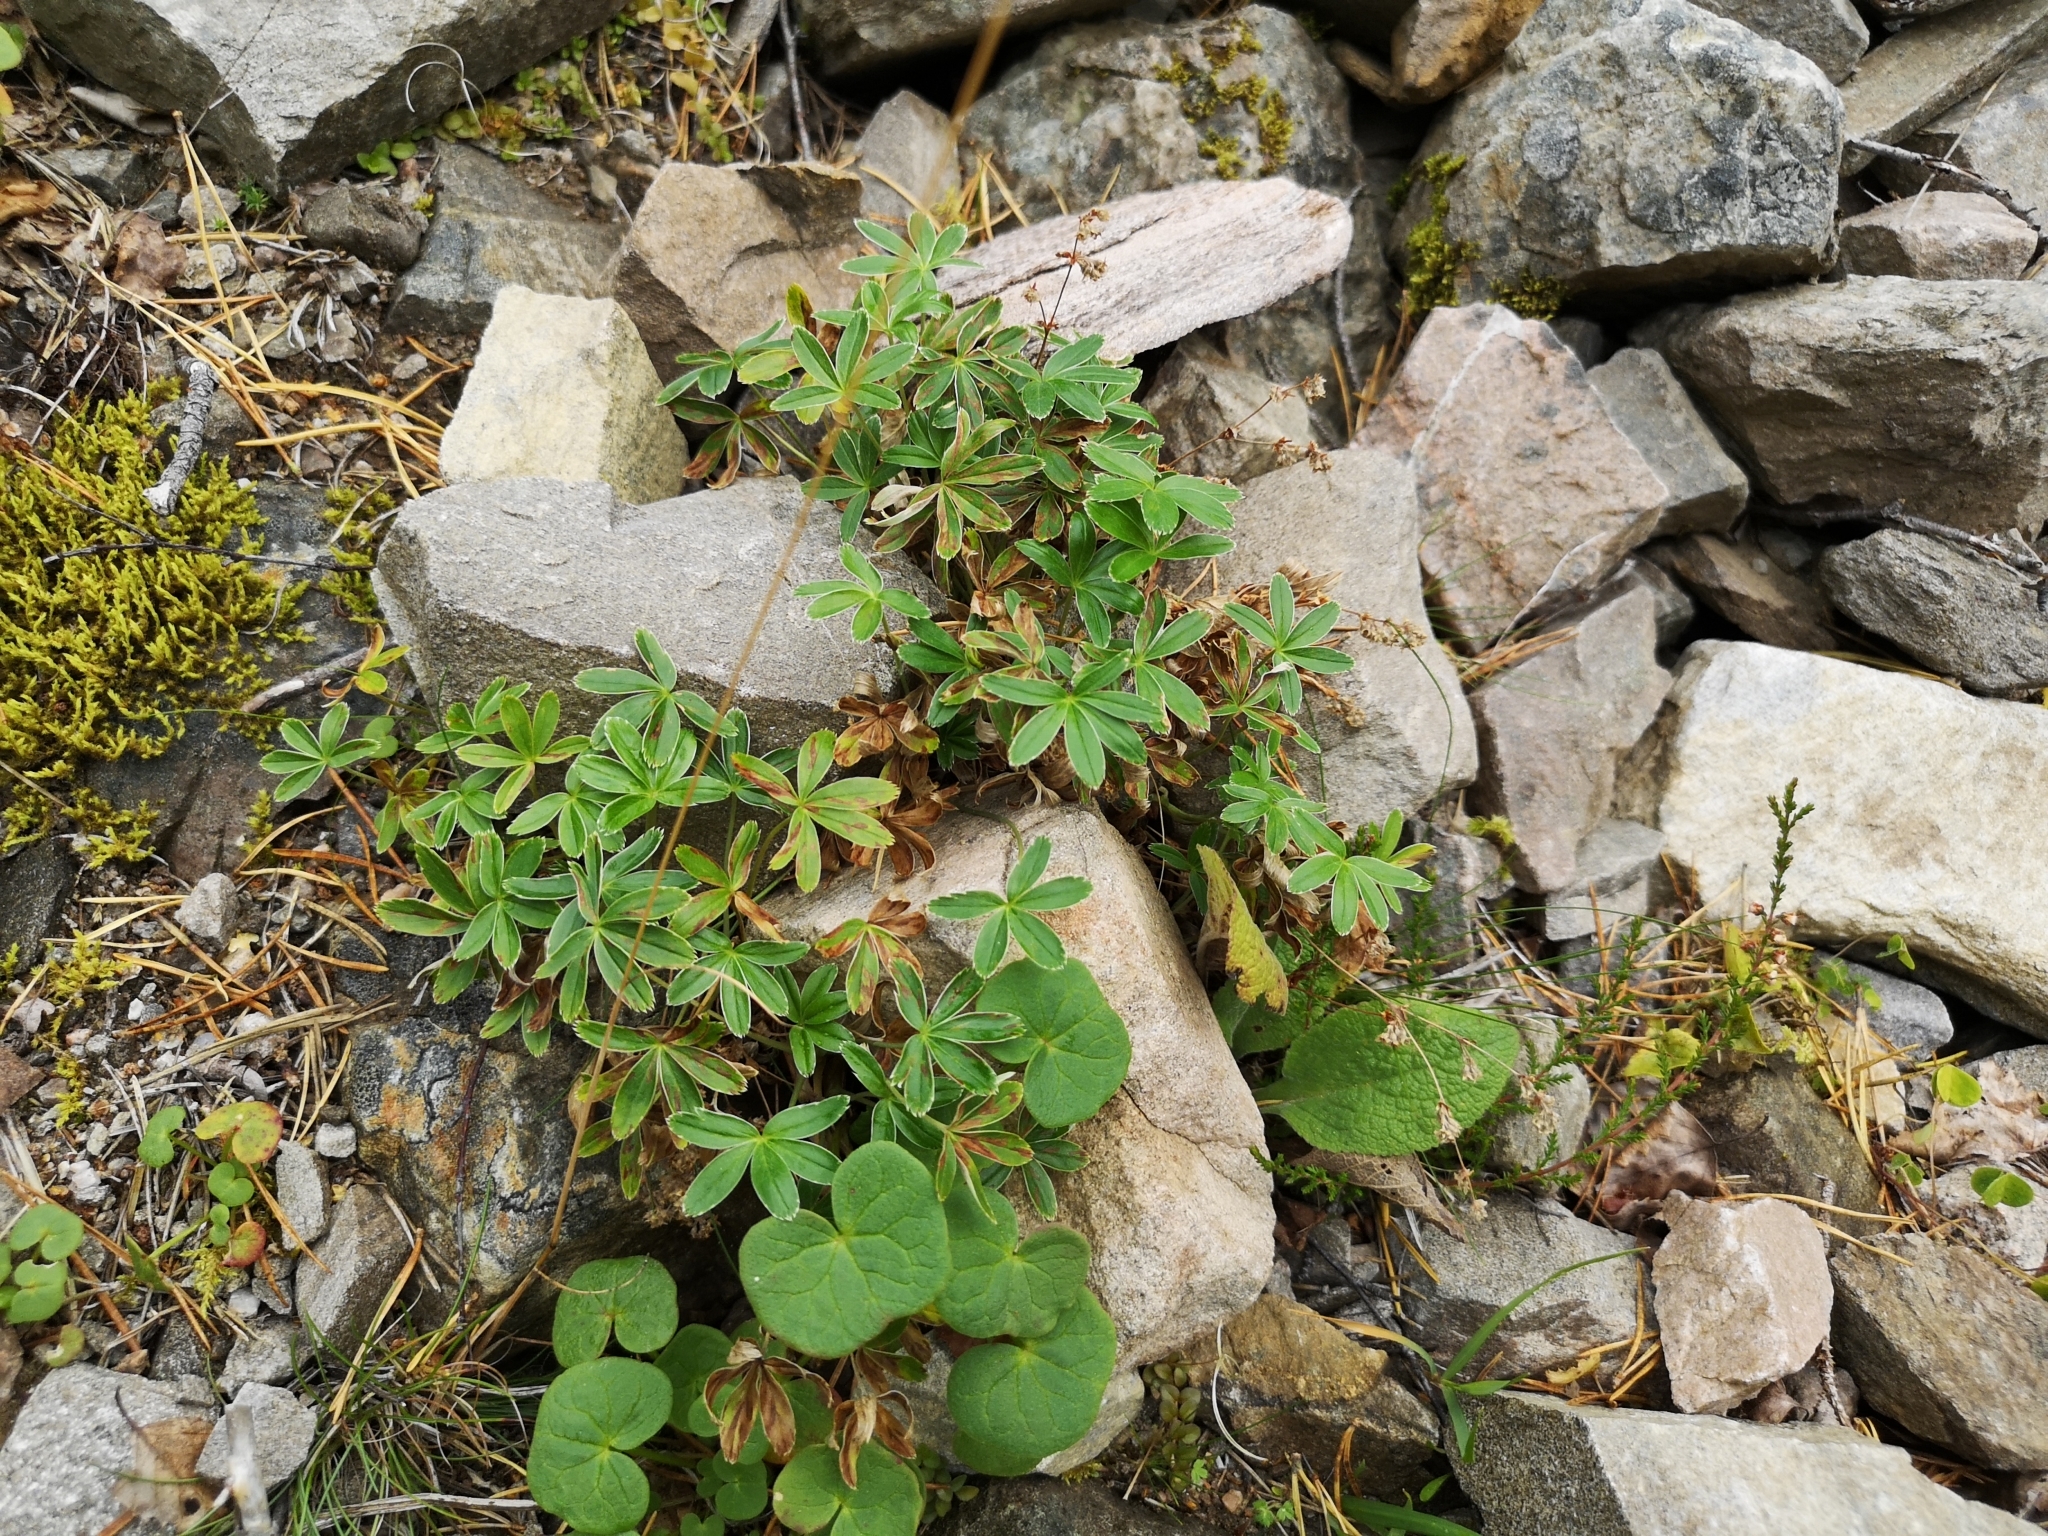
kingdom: Plantae
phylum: Tracheophyta
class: Magnoliopsida
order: Rosales
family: Rosaceae
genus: Alchemilla
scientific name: Alchemilla alpina
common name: Alpine lady's-mantle
